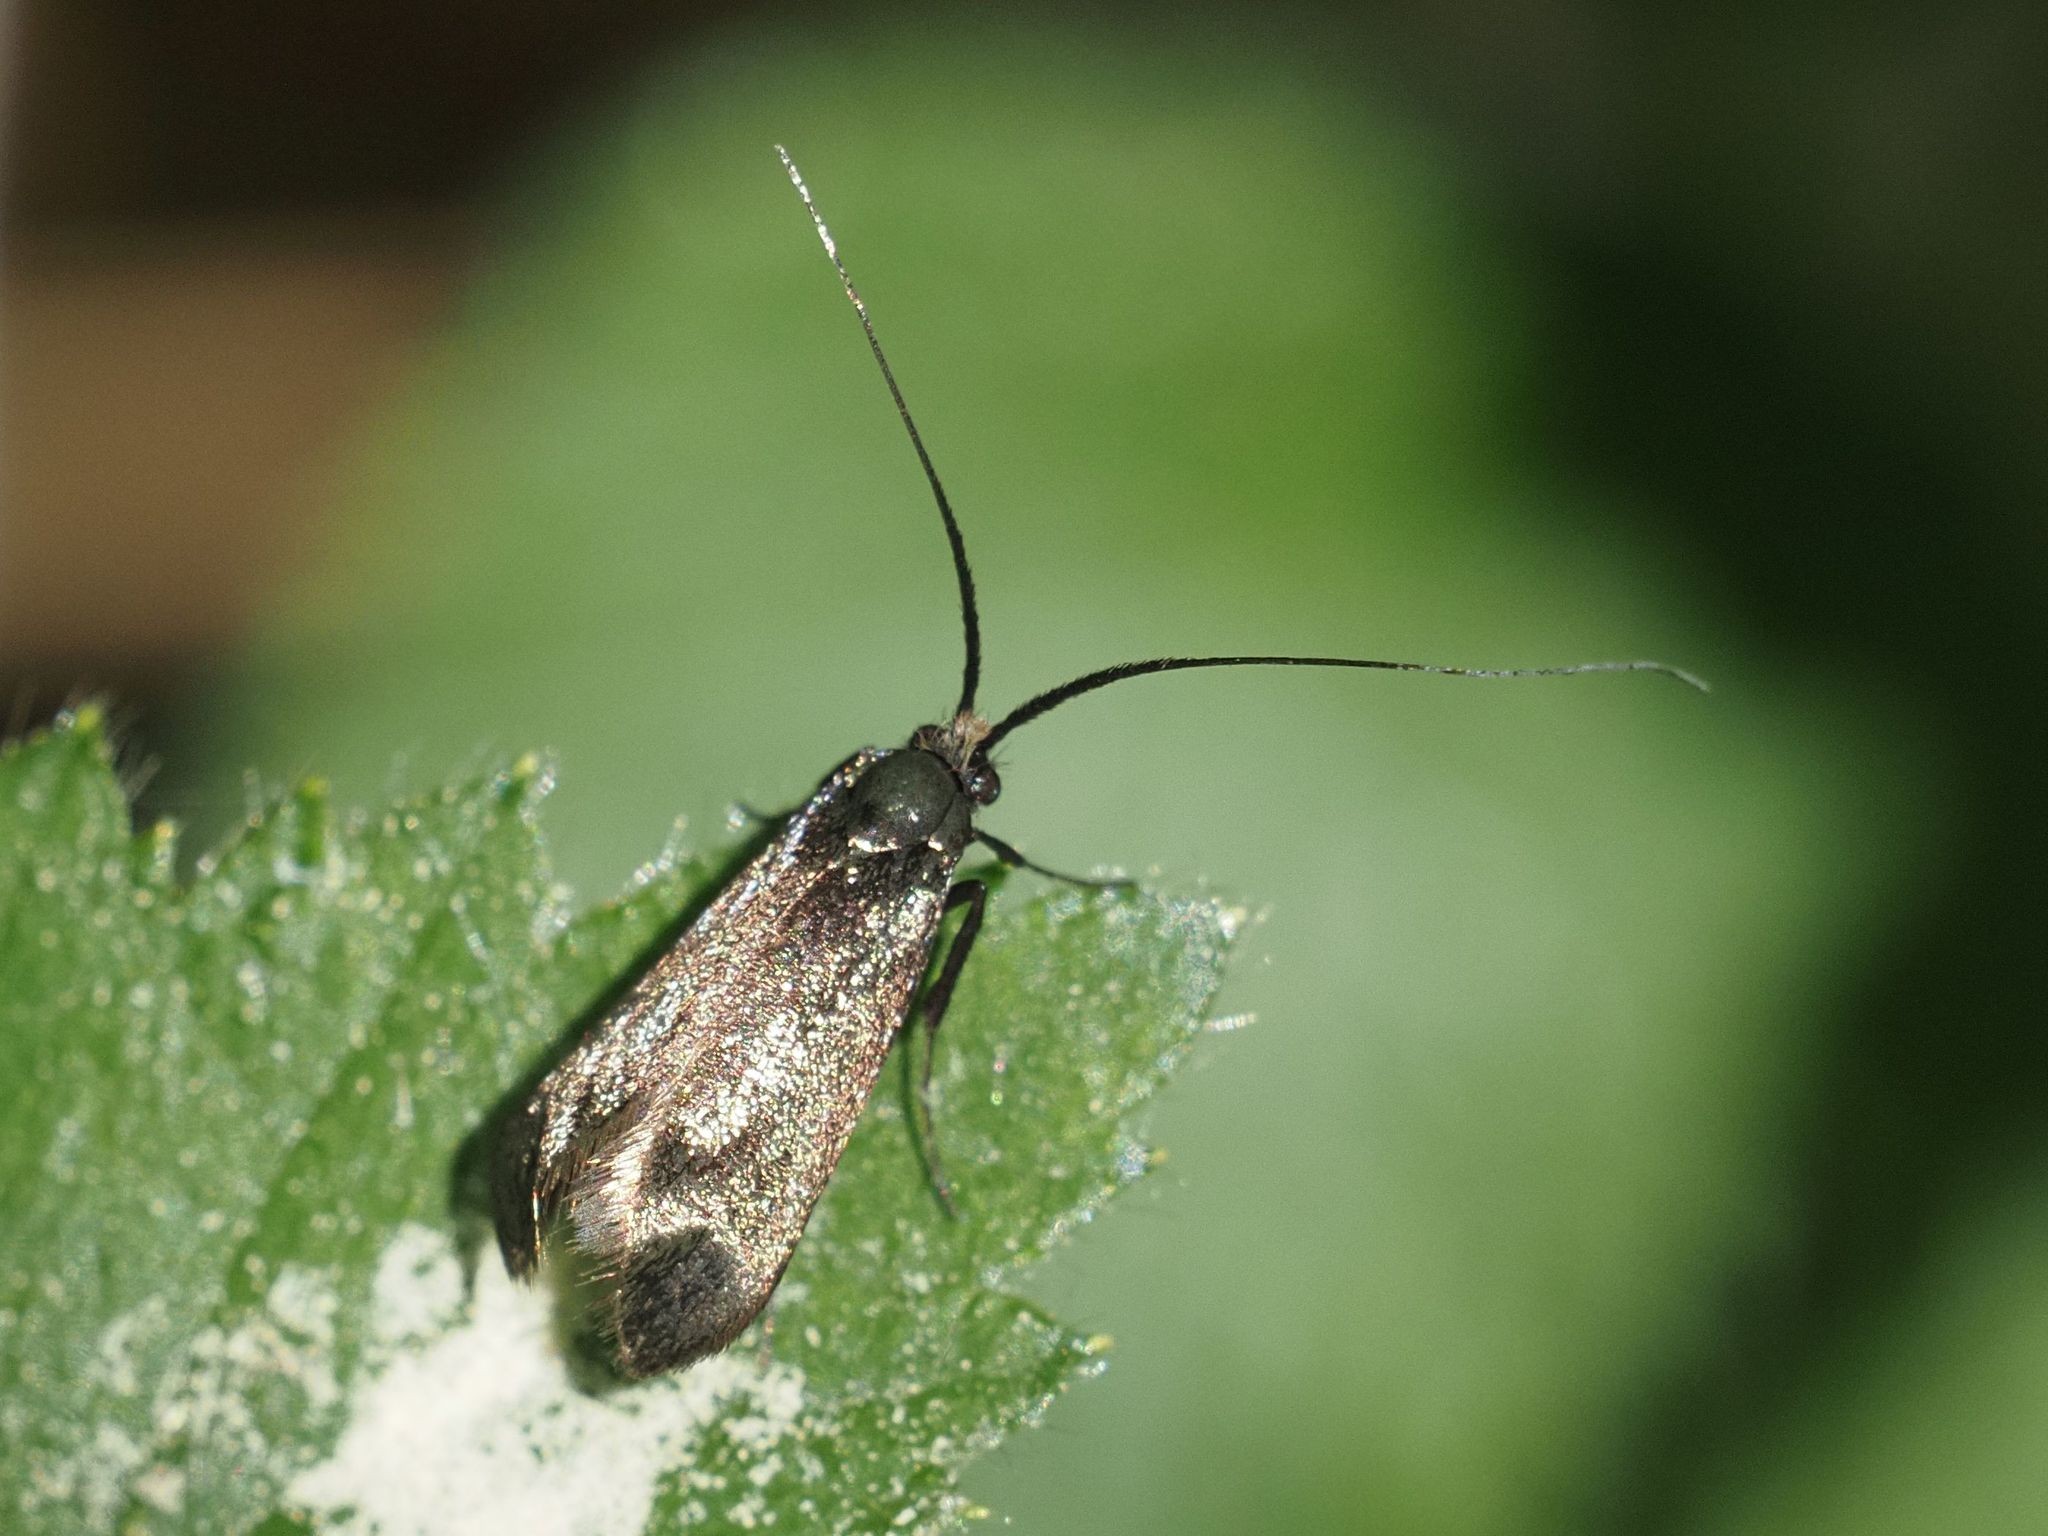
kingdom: Animalia
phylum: Arthropoda
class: Insecta
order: Lepidoptera
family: Adelidae
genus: Adela
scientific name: Adela viridella
